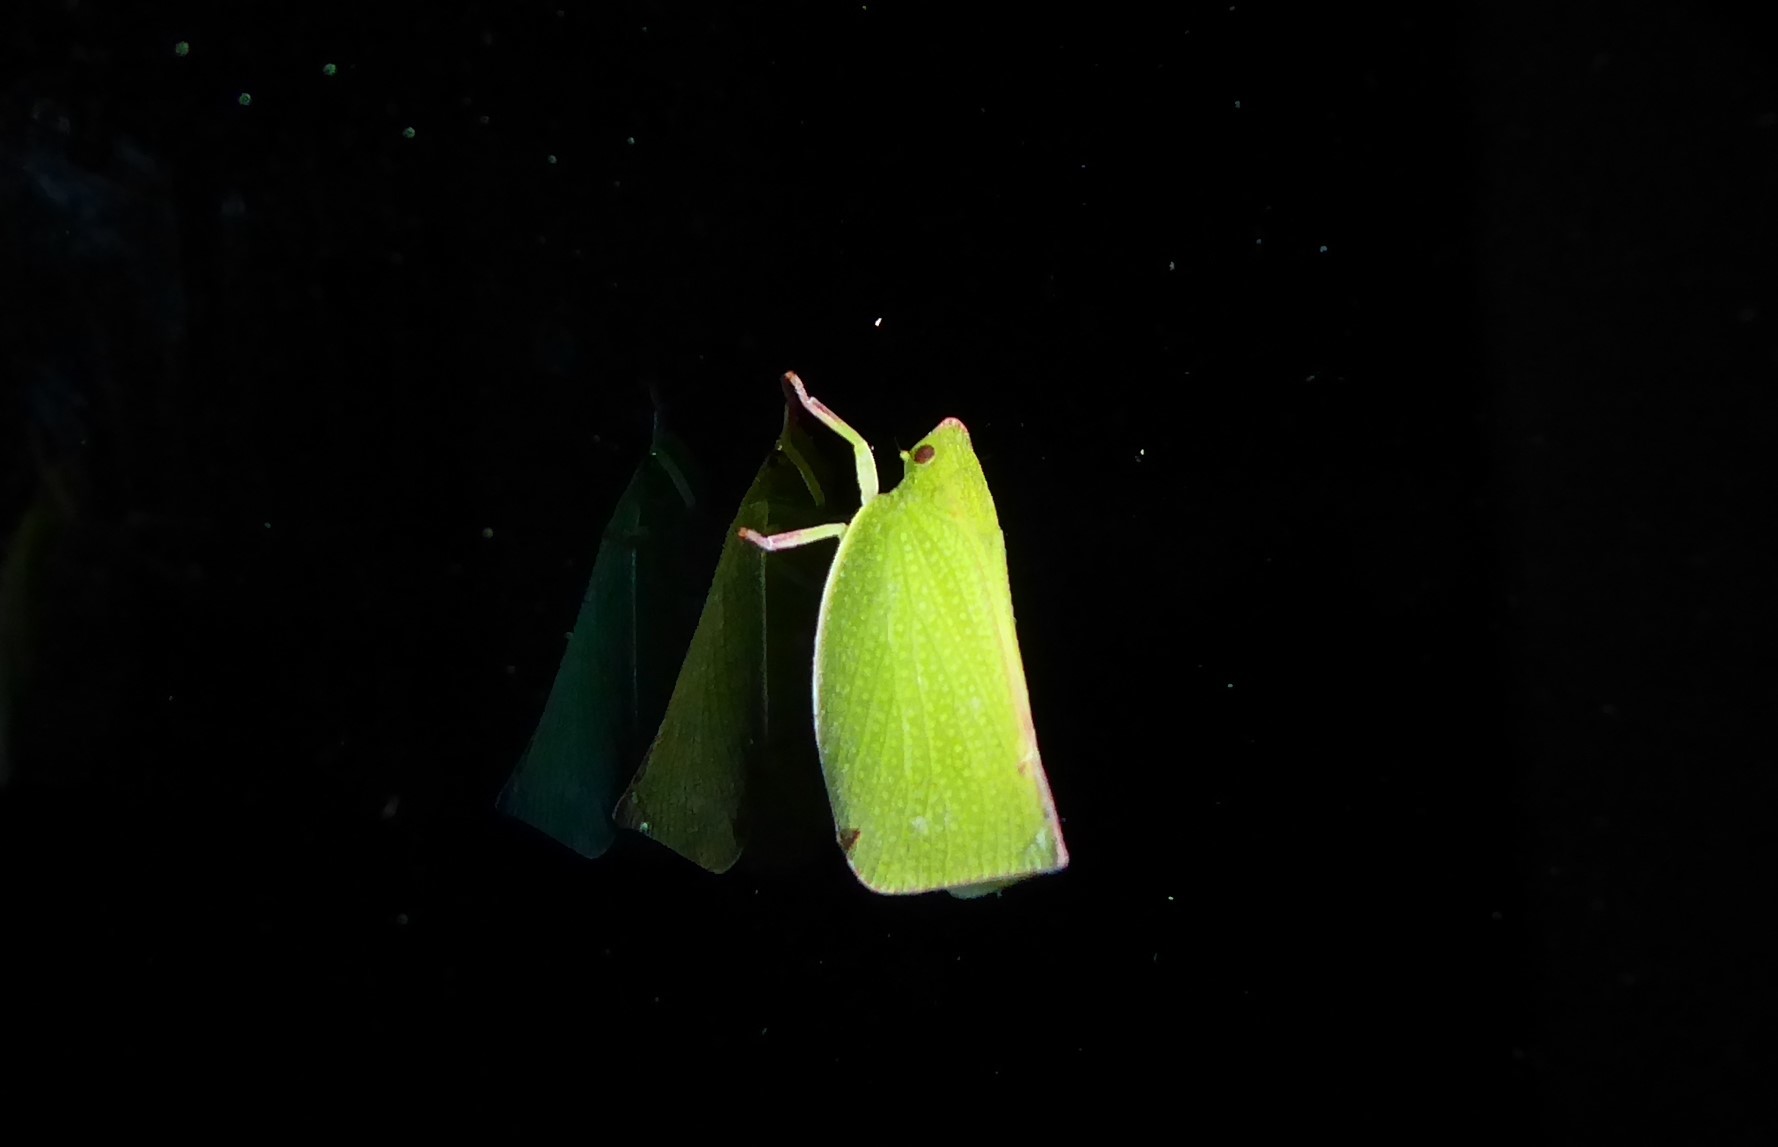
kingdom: Animalia
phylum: Arthropoda
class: Insecta
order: Hemiptera
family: Flatidae
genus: Siphanta
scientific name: Siphanta acuta
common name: Torpedo bug
